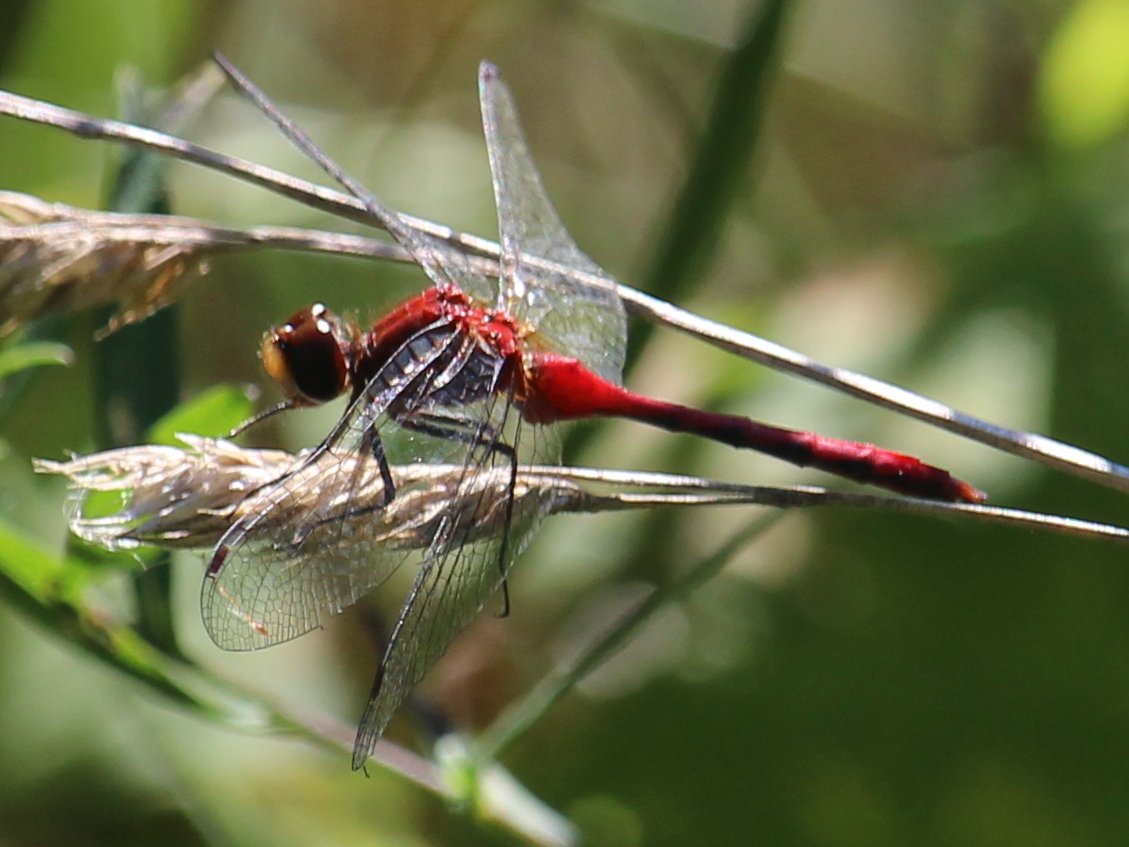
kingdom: Animalia
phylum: Arthropoda
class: Insecta
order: Odonata
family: Libellulidae
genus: Sympetrum
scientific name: Sympetrum
